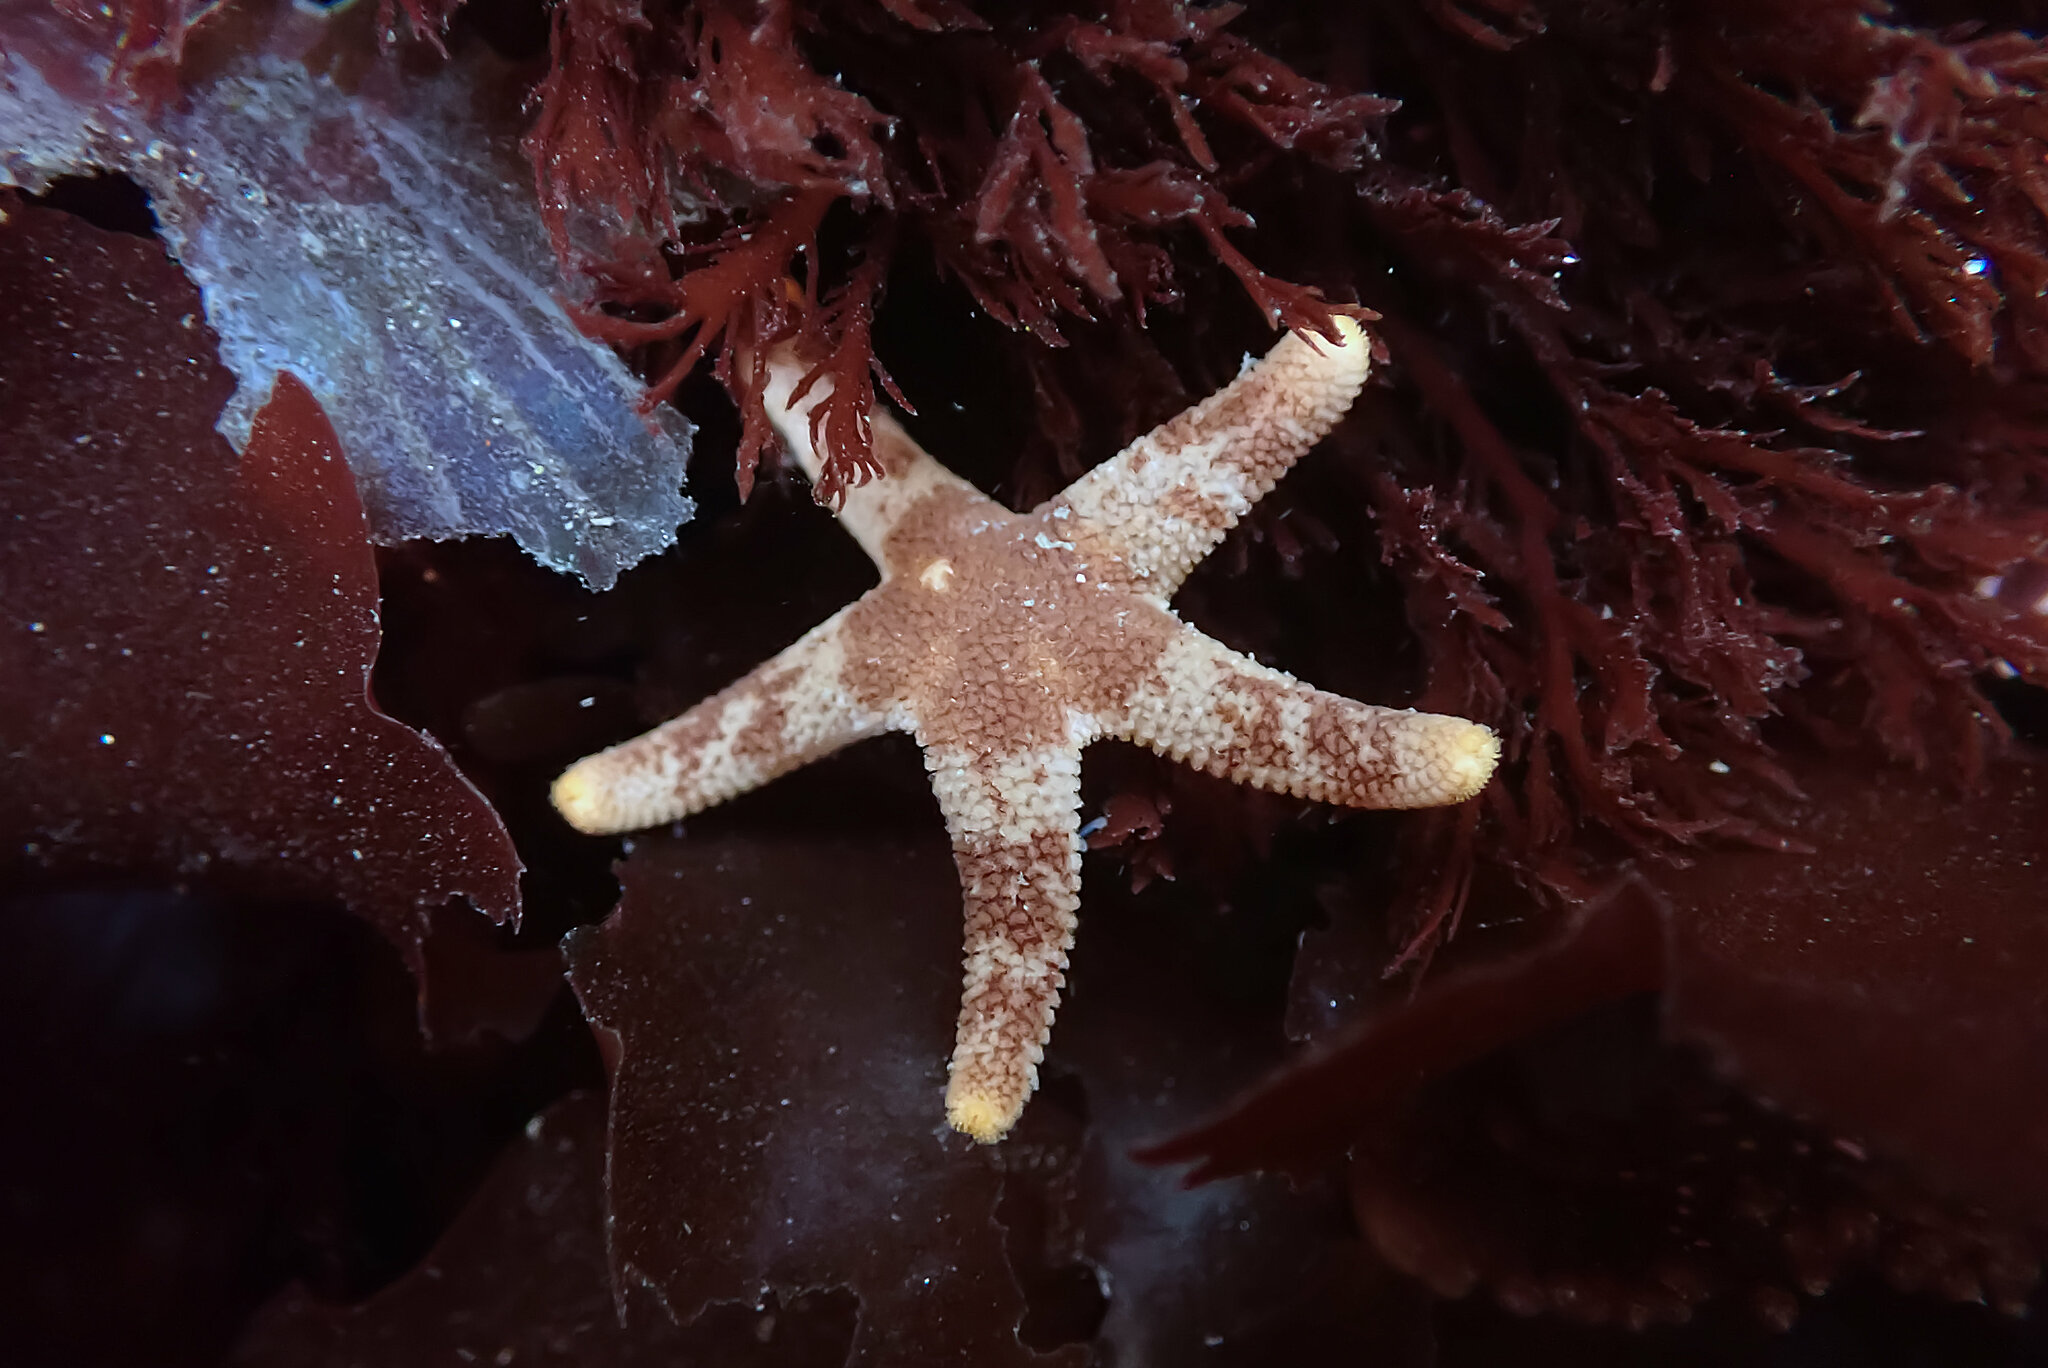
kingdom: Animalia
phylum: Echinodermata
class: Asteroidea
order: Spinulosida
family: Echinasteridae
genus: Henricia
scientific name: Henricia pumila
